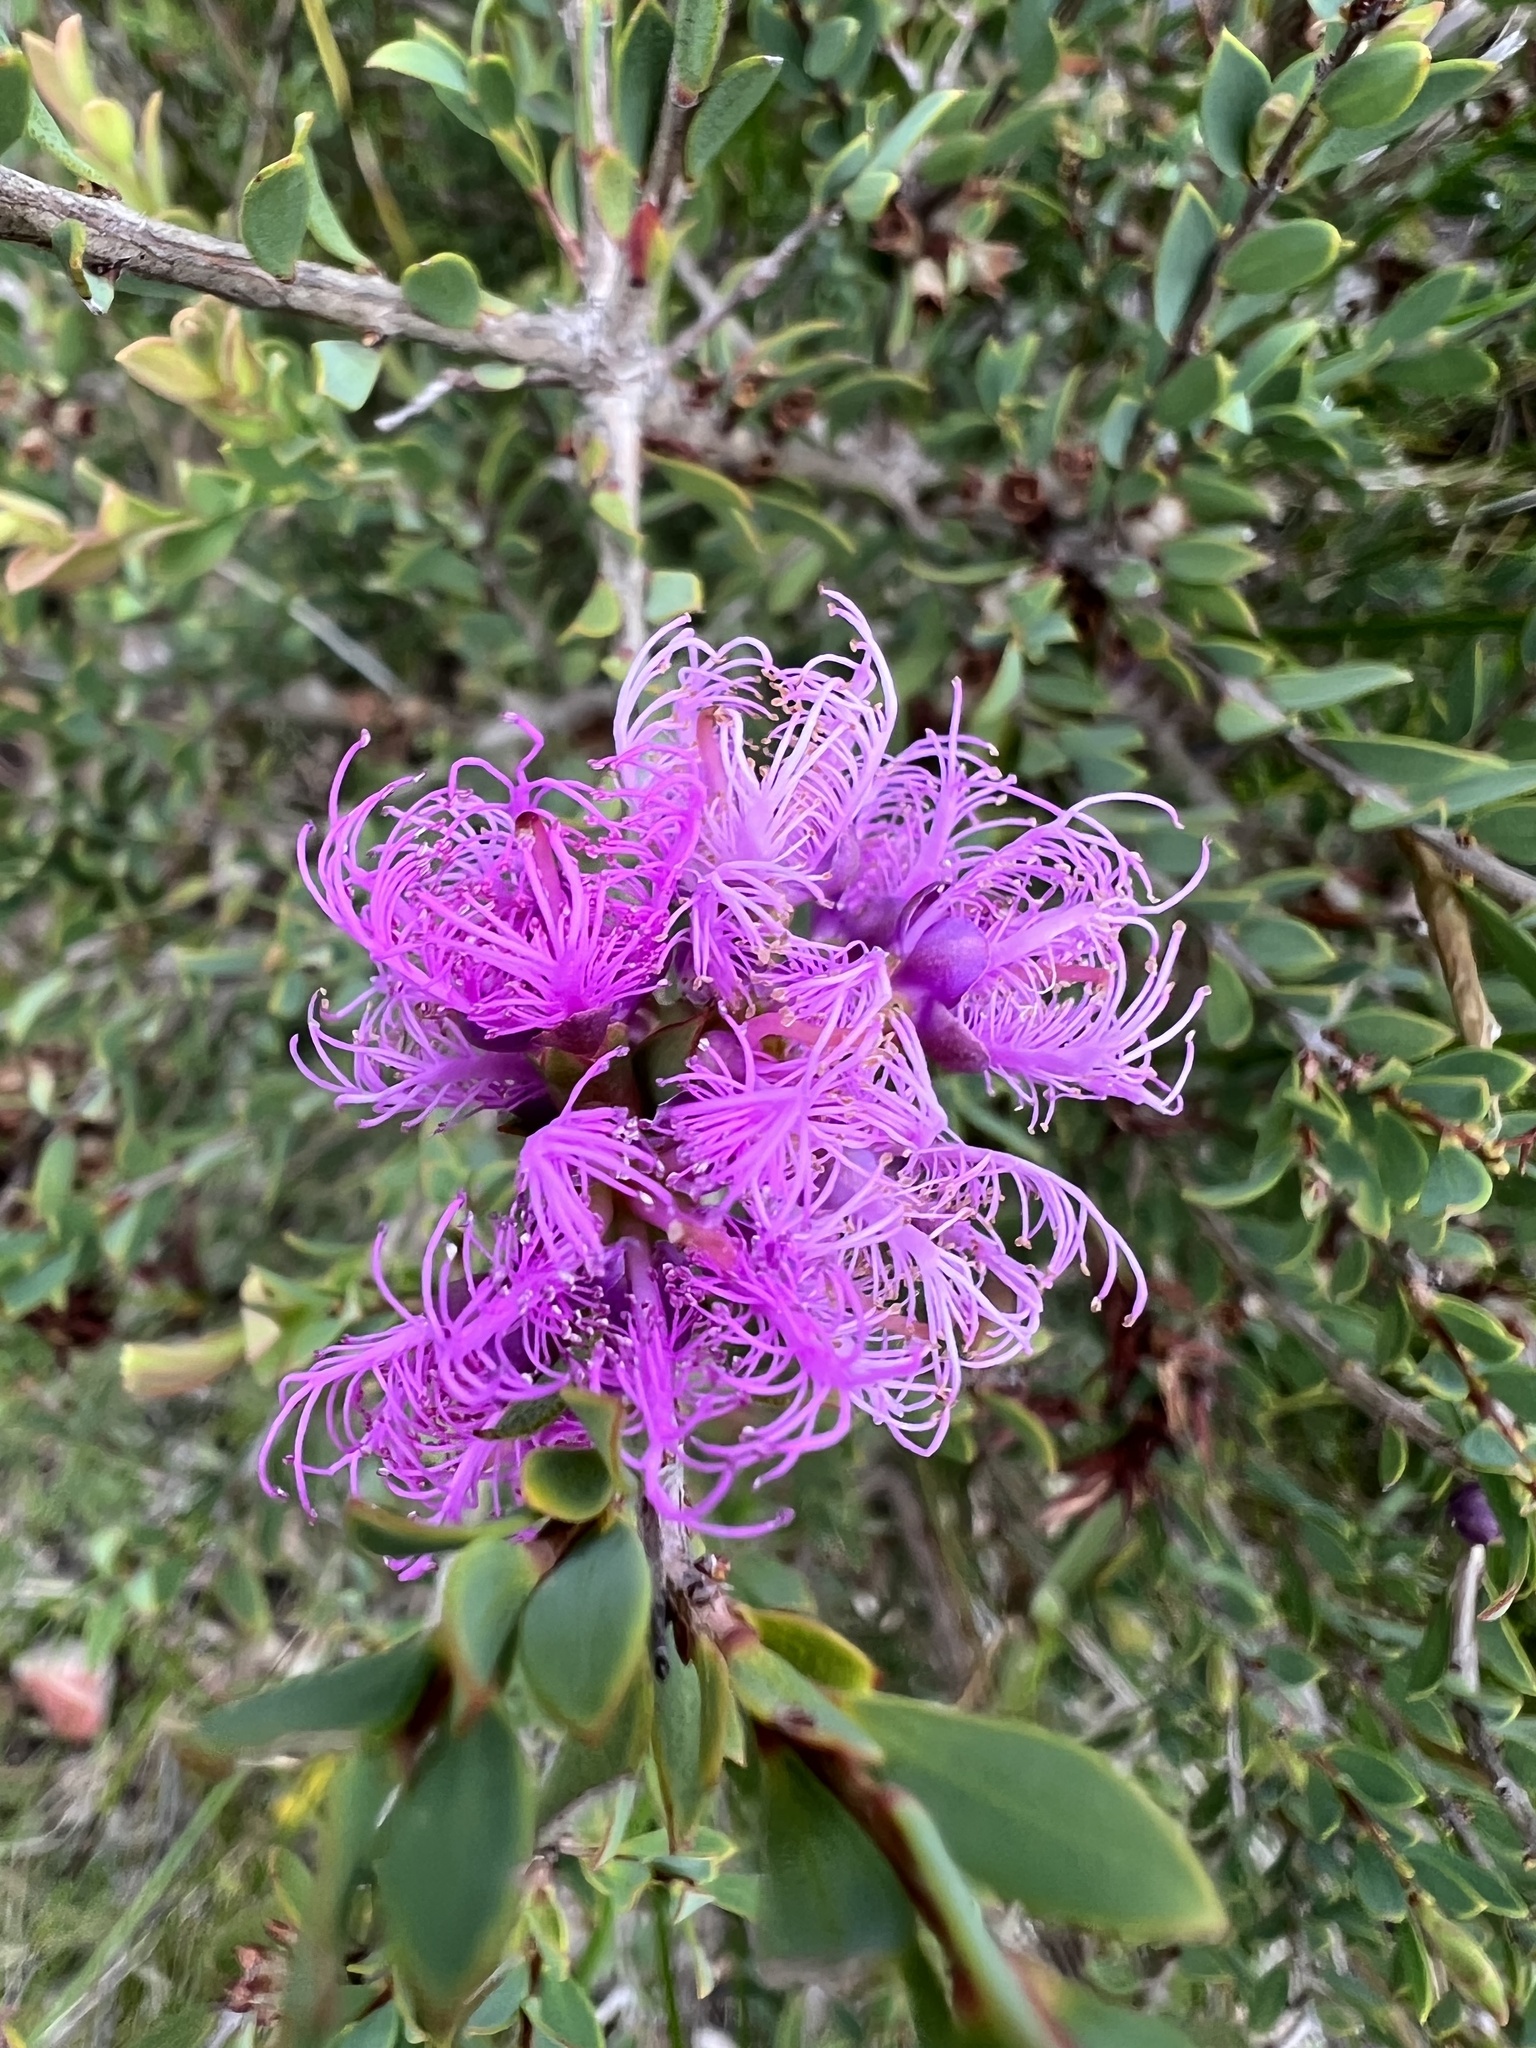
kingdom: Plantae
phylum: Tracheophyta
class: Magnoliopsida
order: Myrtales
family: Myrtaceae
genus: Melaleuca
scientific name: Melaleuca thymifolia
